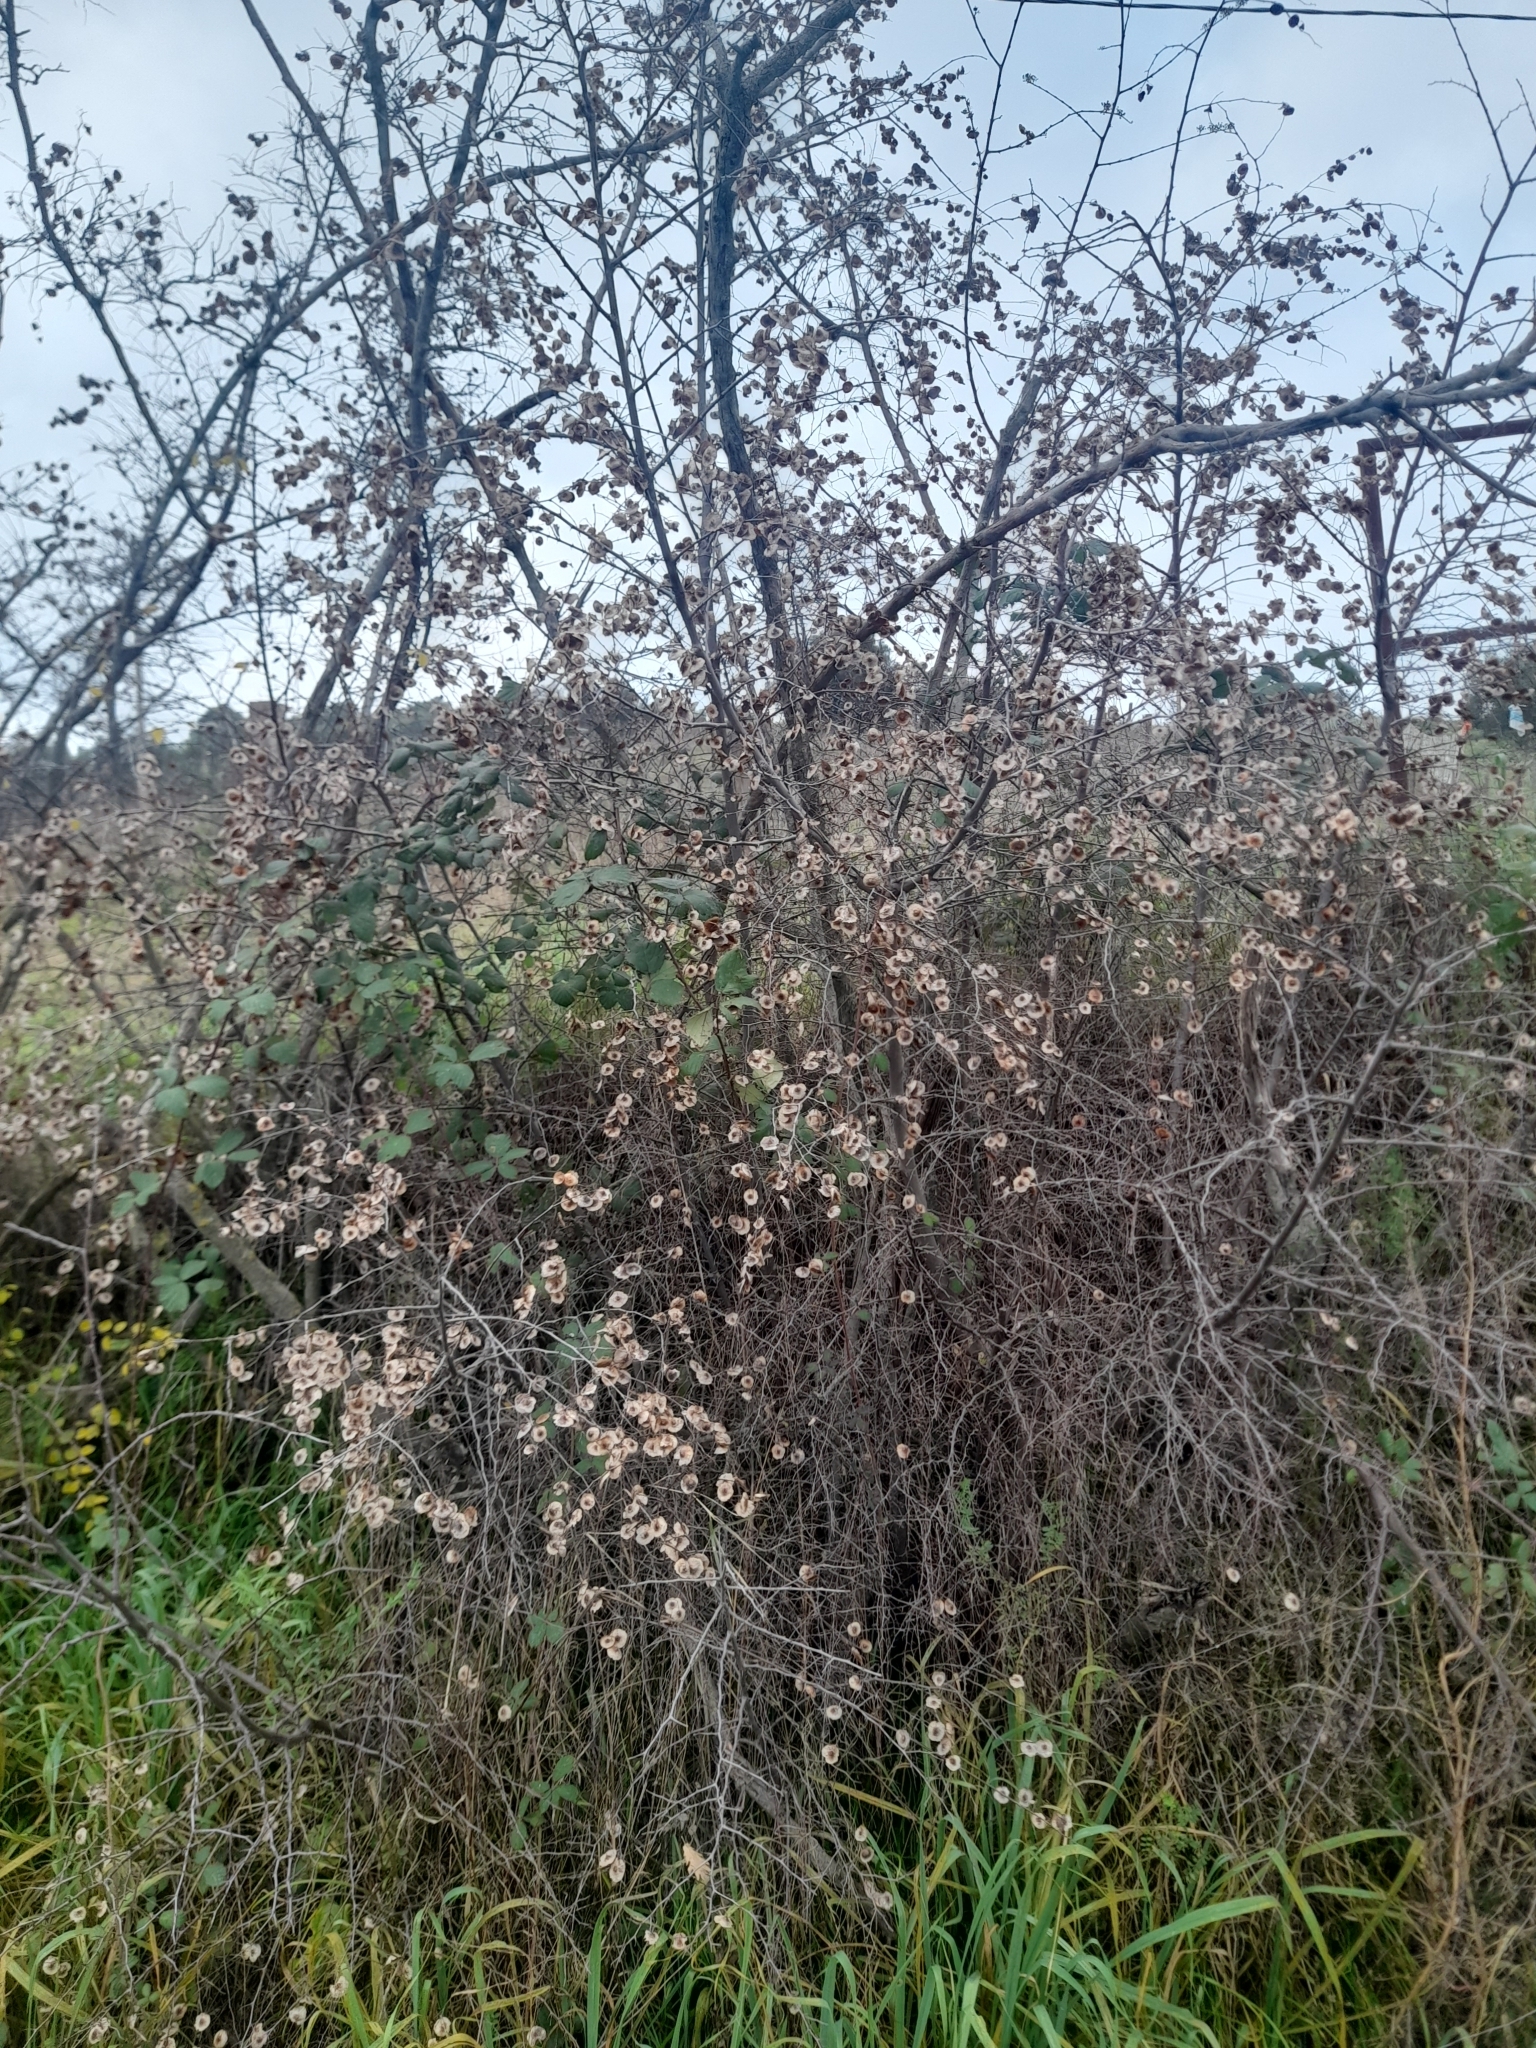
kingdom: Plantae
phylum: Tracheophyta
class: Magnoliopsida
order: Rosales
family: Rhamnaceae
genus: Paliurus
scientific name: Paliurus spina-christi
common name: Jeruselem thorn
